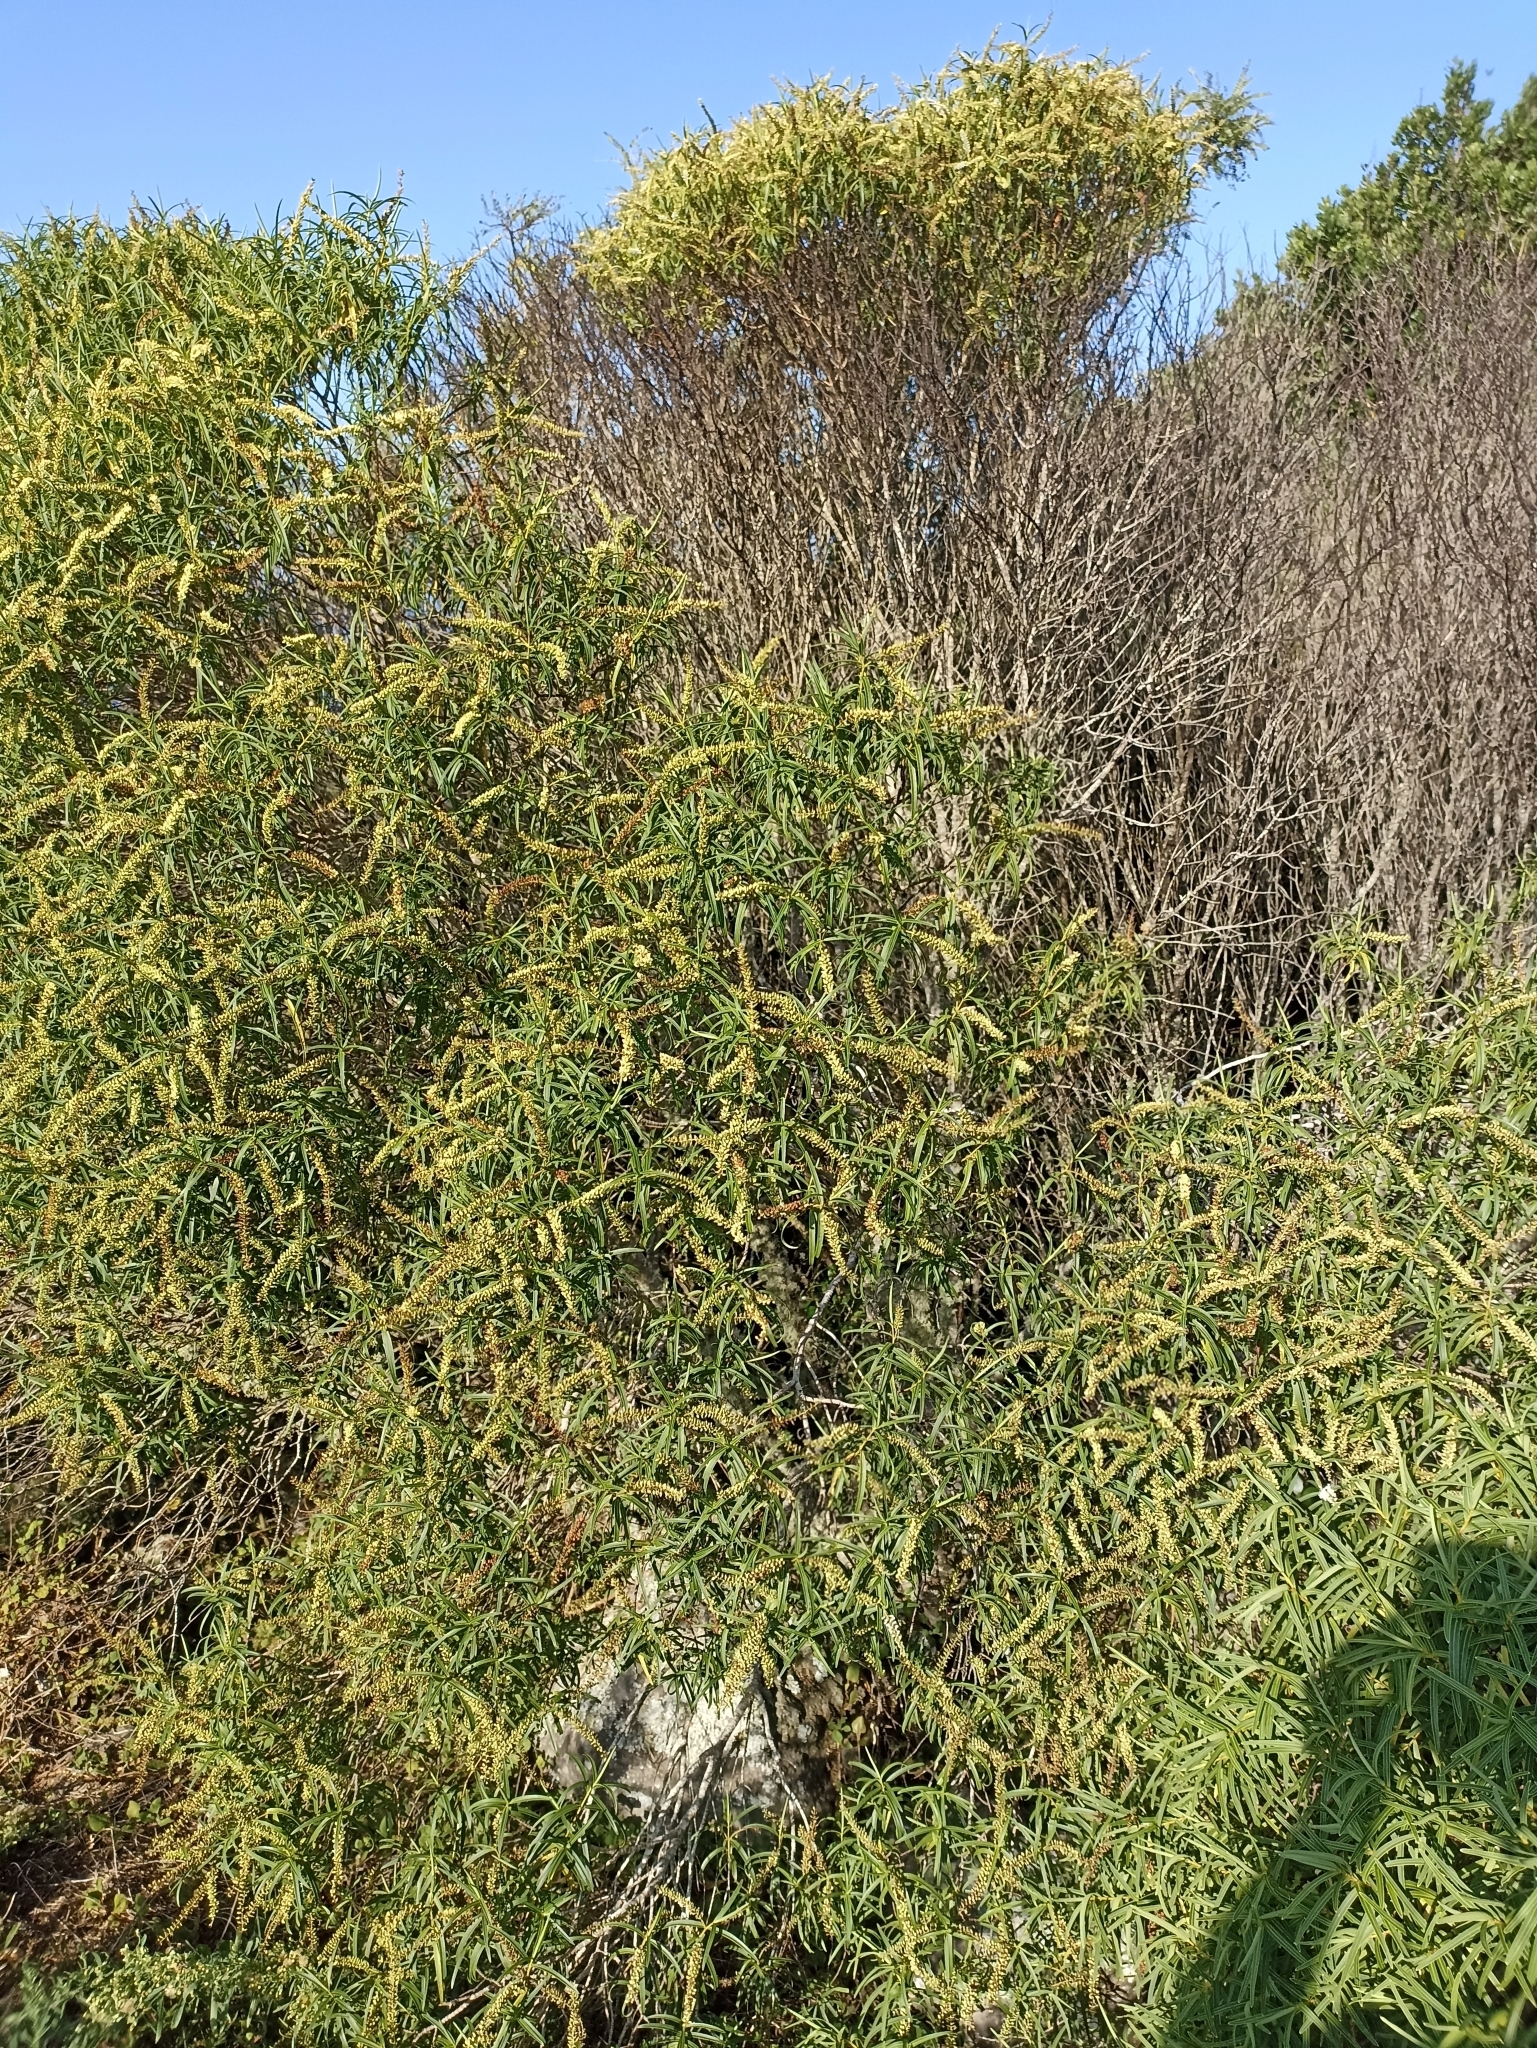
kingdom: Plantae
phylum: Tracheophyta
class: Magnoliopsida
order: Lamiales
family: Plantaginaceae
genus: Veronica
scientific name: Veronica parviflora
